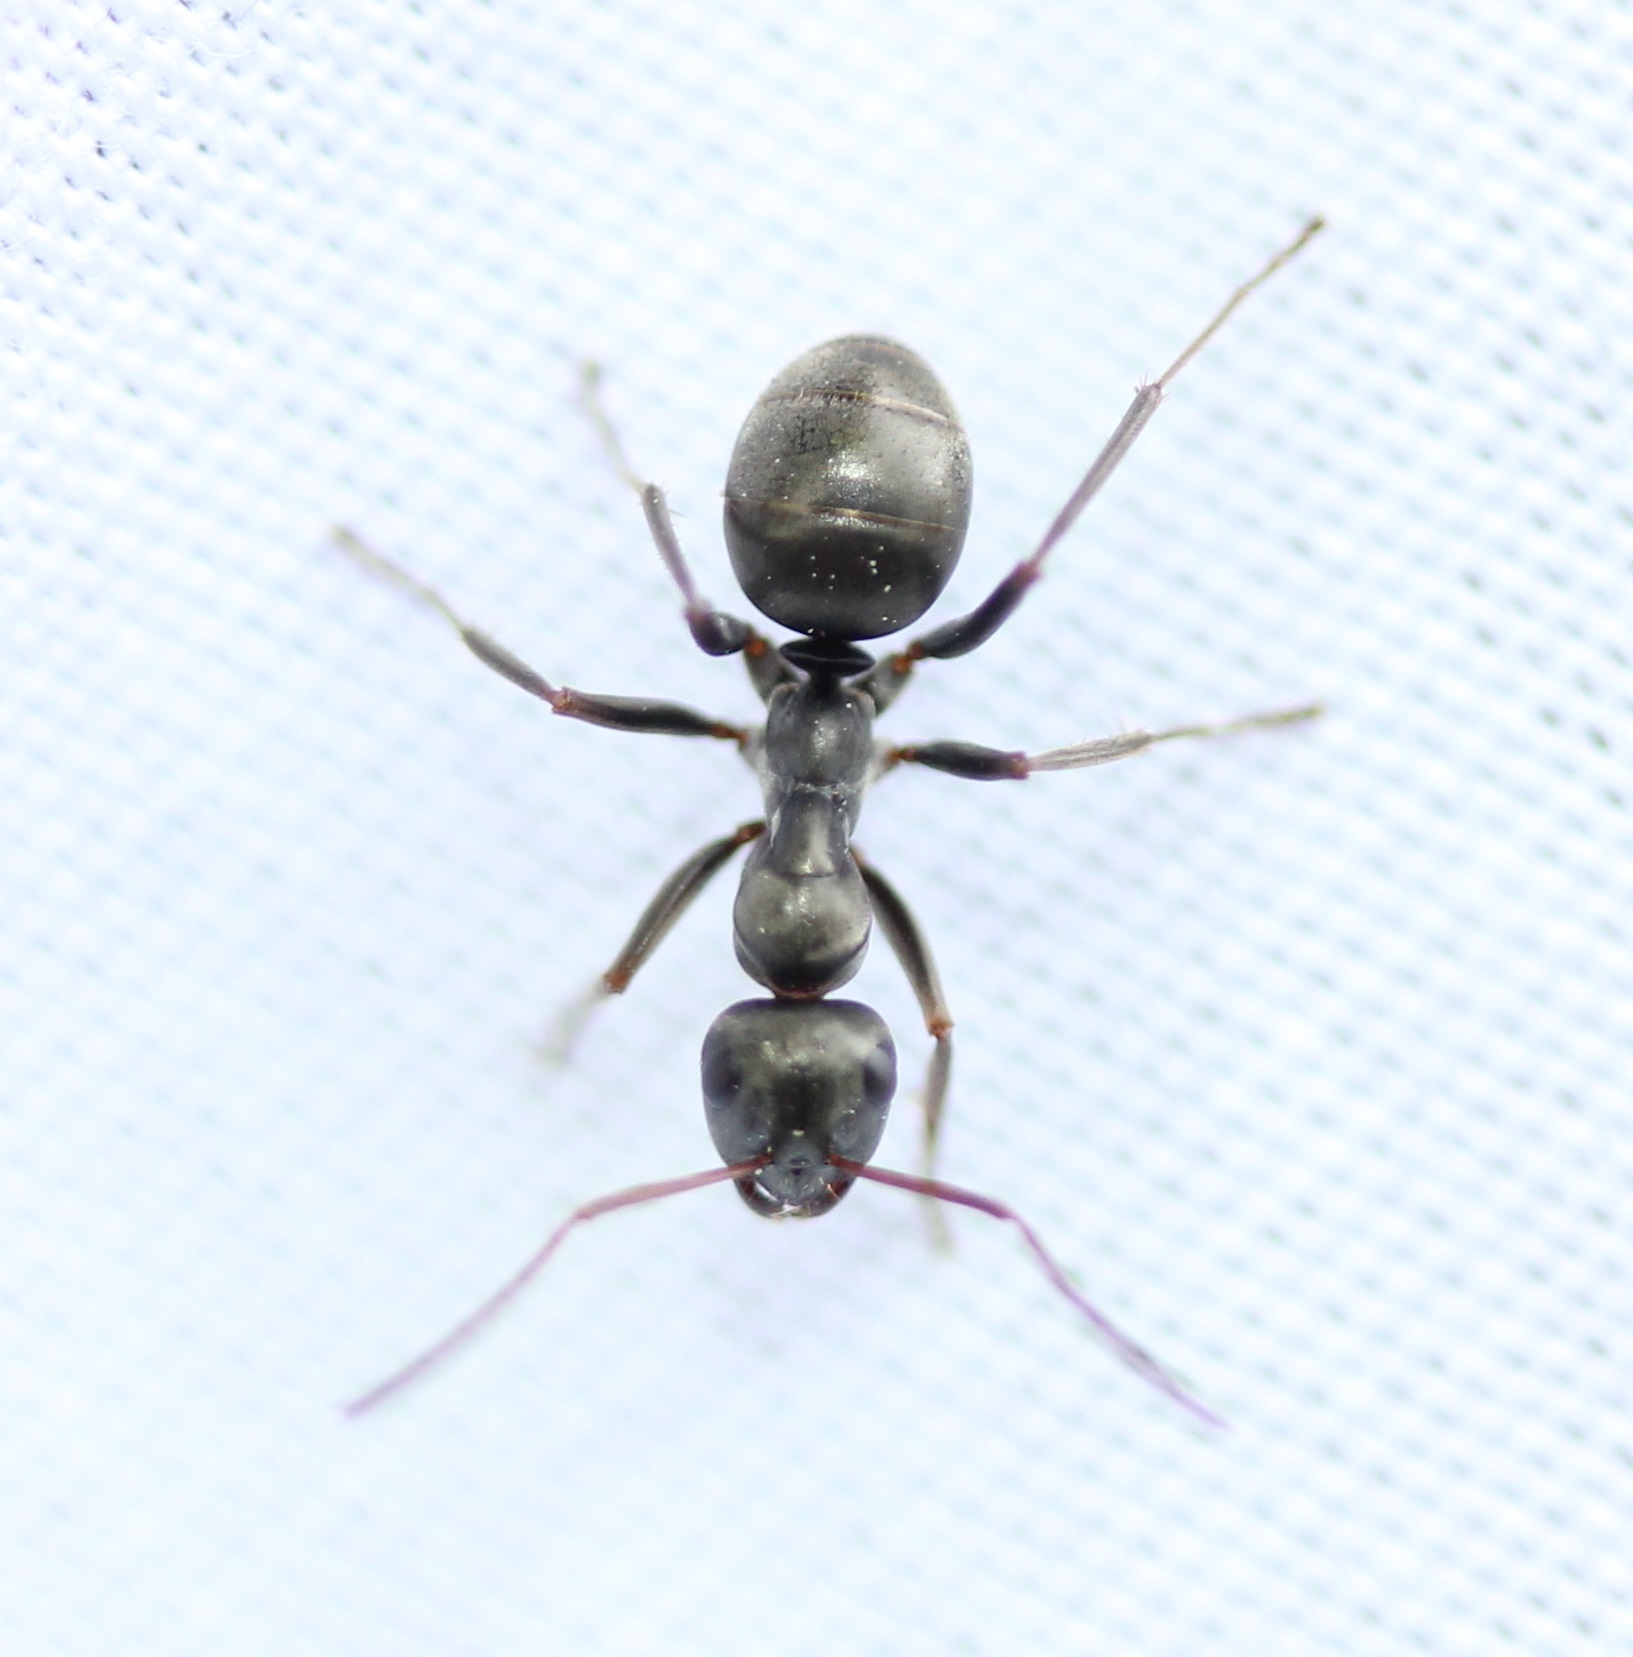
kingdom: Animalia
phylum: Arthropoda
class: Insecta
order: Hymenoptera
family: Formicidae
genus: Formica
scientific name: Formica argentea
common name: Silvery field ant
